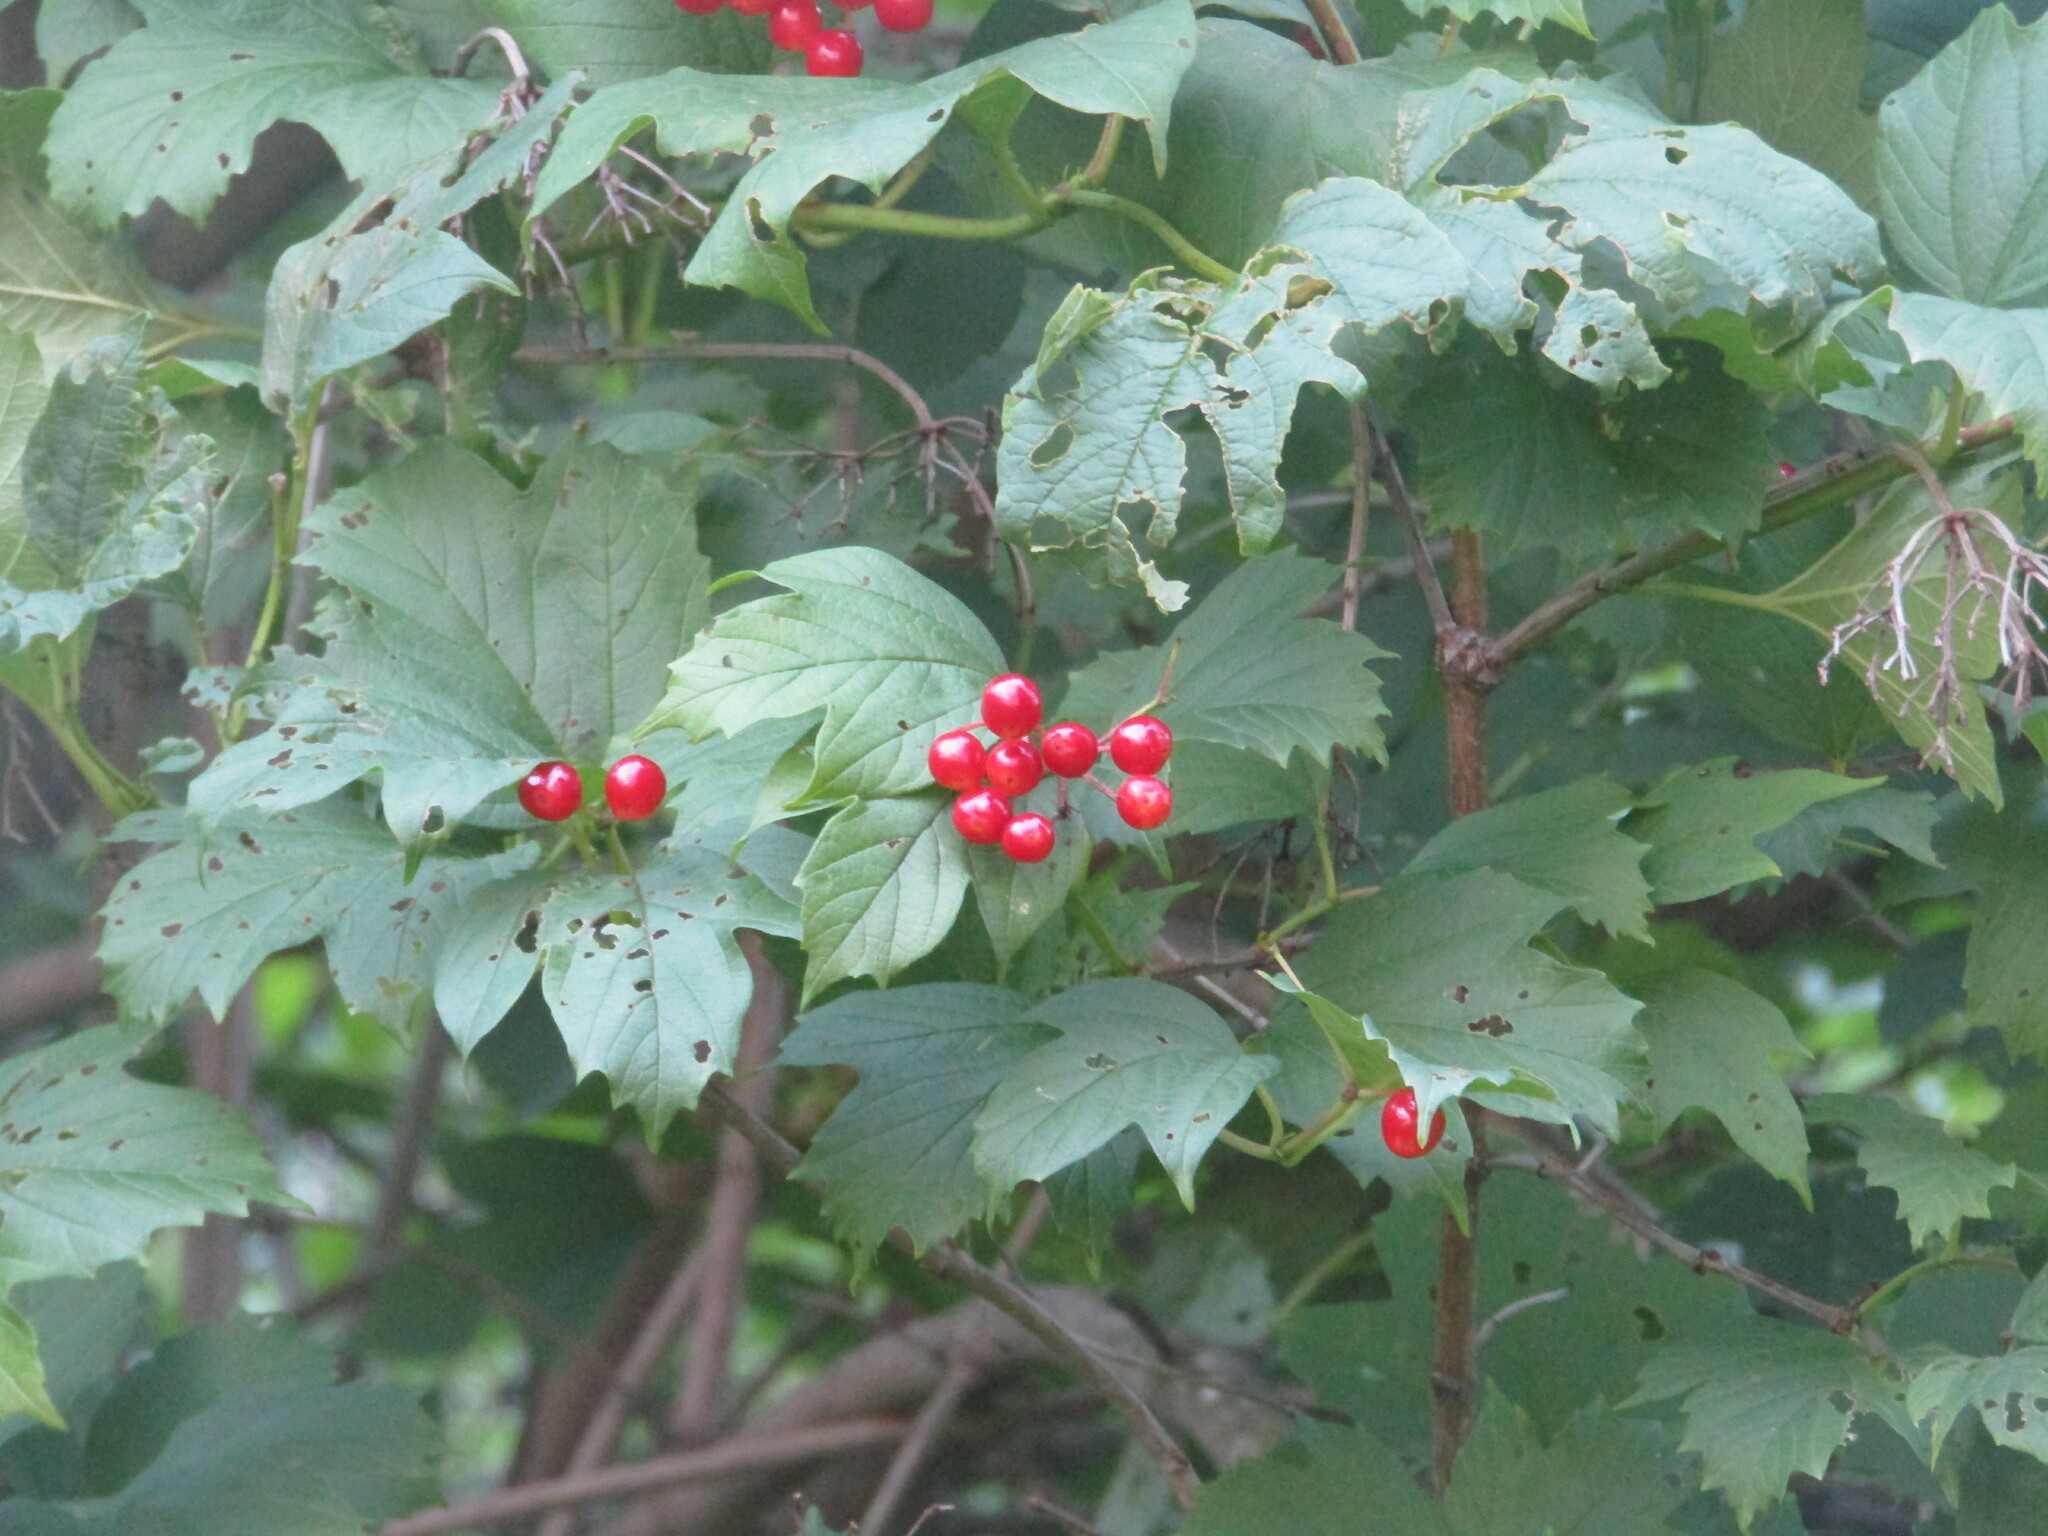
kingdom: Plantae
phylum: Tracheophyta
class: Magnoliopsida
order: Dipsacales
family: Viburnaceae
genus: Viburnum
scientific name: Viburnum opulus
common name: Guelder-rose
